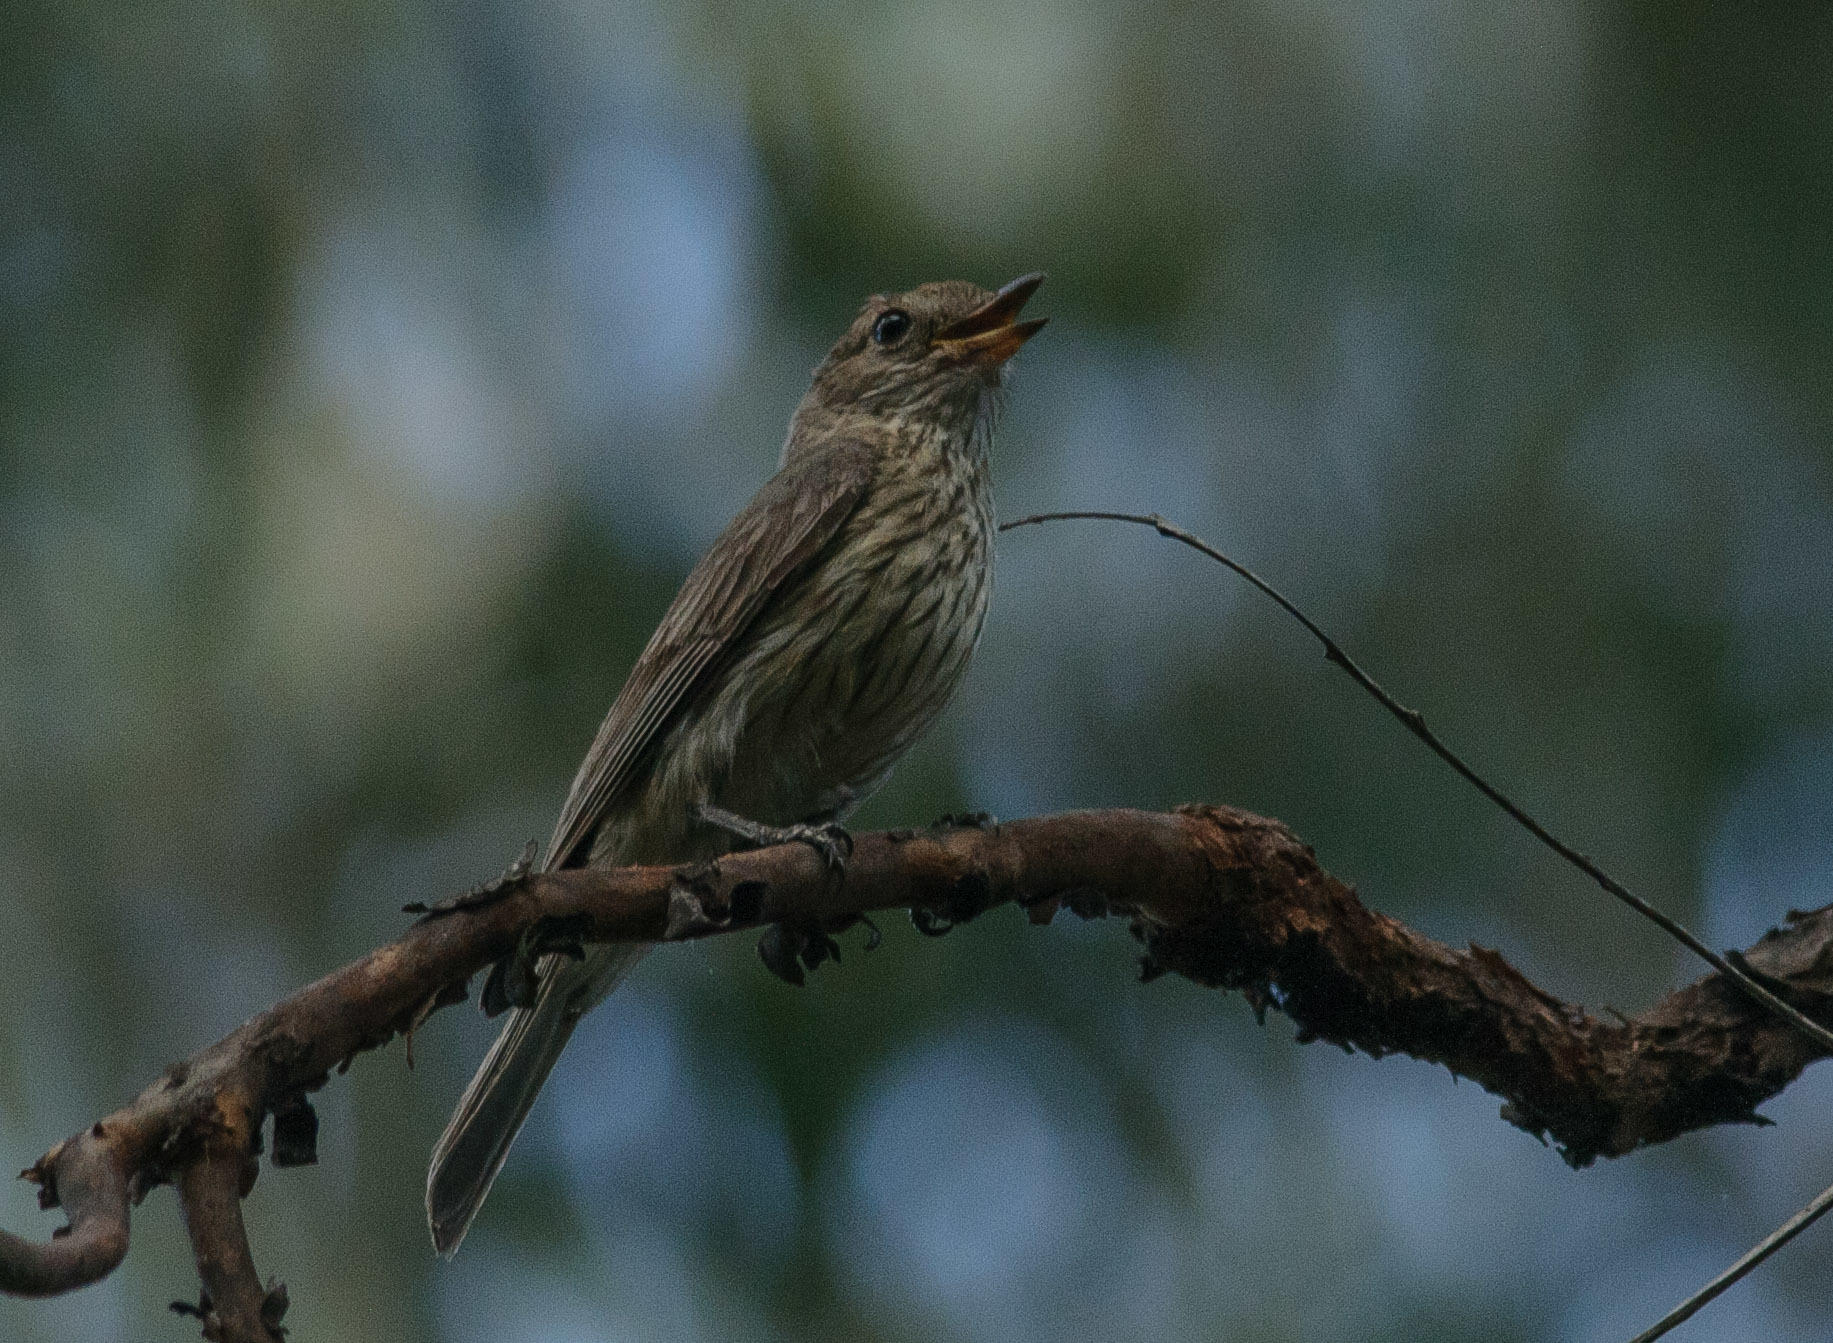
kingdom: Animalia
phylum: Chordata
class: Aves
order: Passeriformes
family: Pachycephalidae
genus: Pachycephala
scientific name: Pachycephala rufiventris
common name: Rufous whistler
